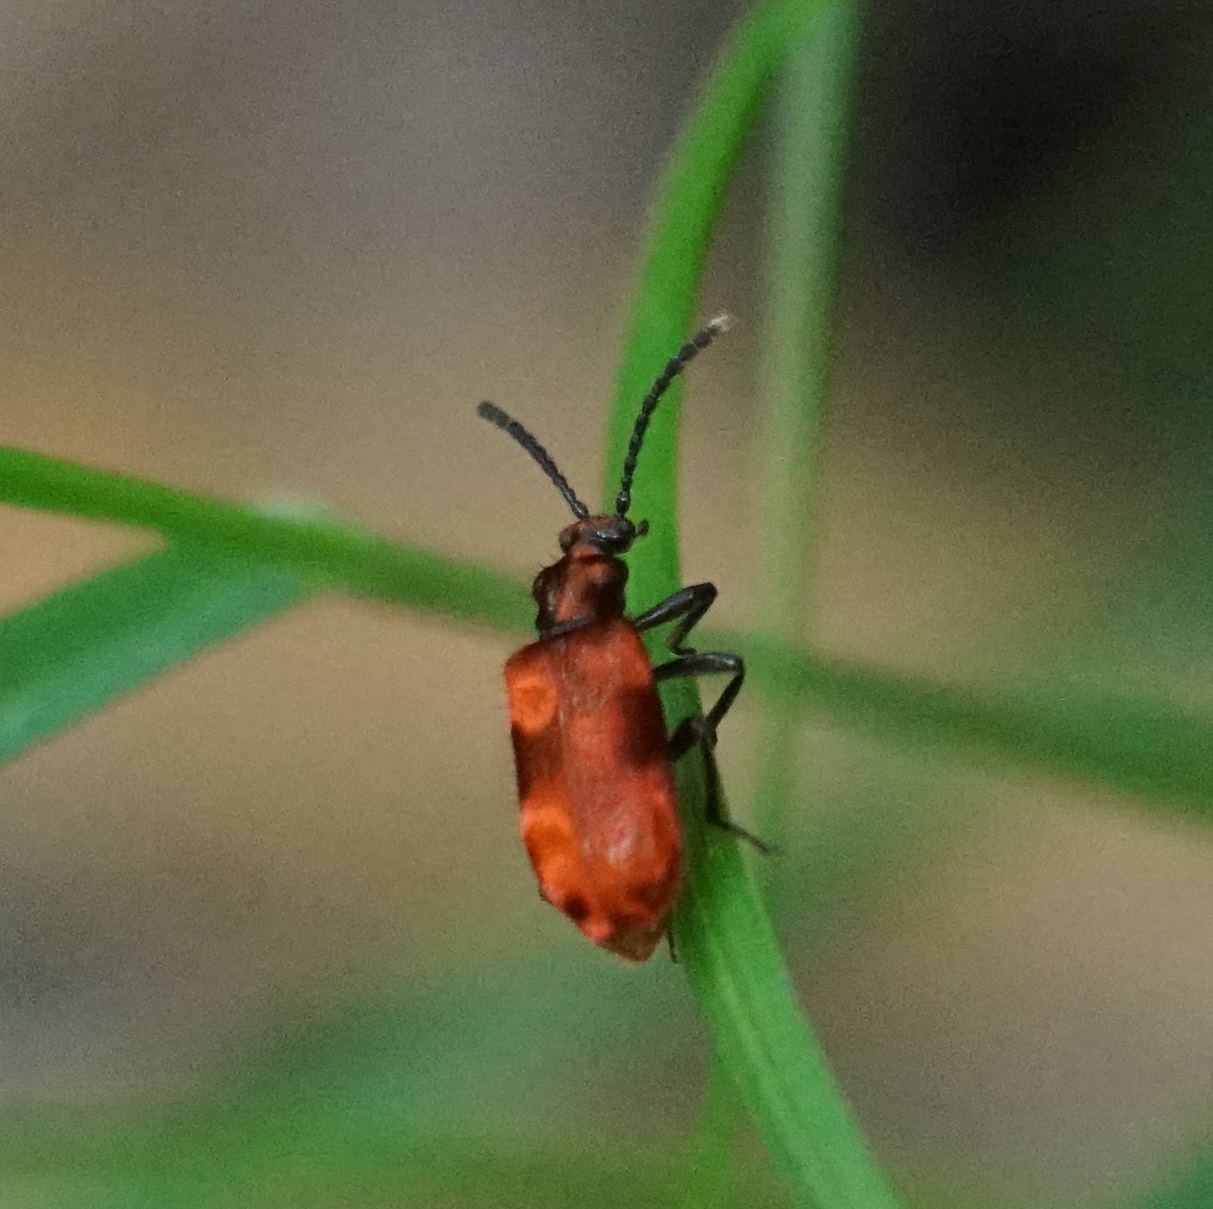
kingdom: Animalia
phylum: Arthropoda
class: Insecta
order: Coleoptera
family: Anthicidae
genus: Lemodes
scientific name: Lemodes
